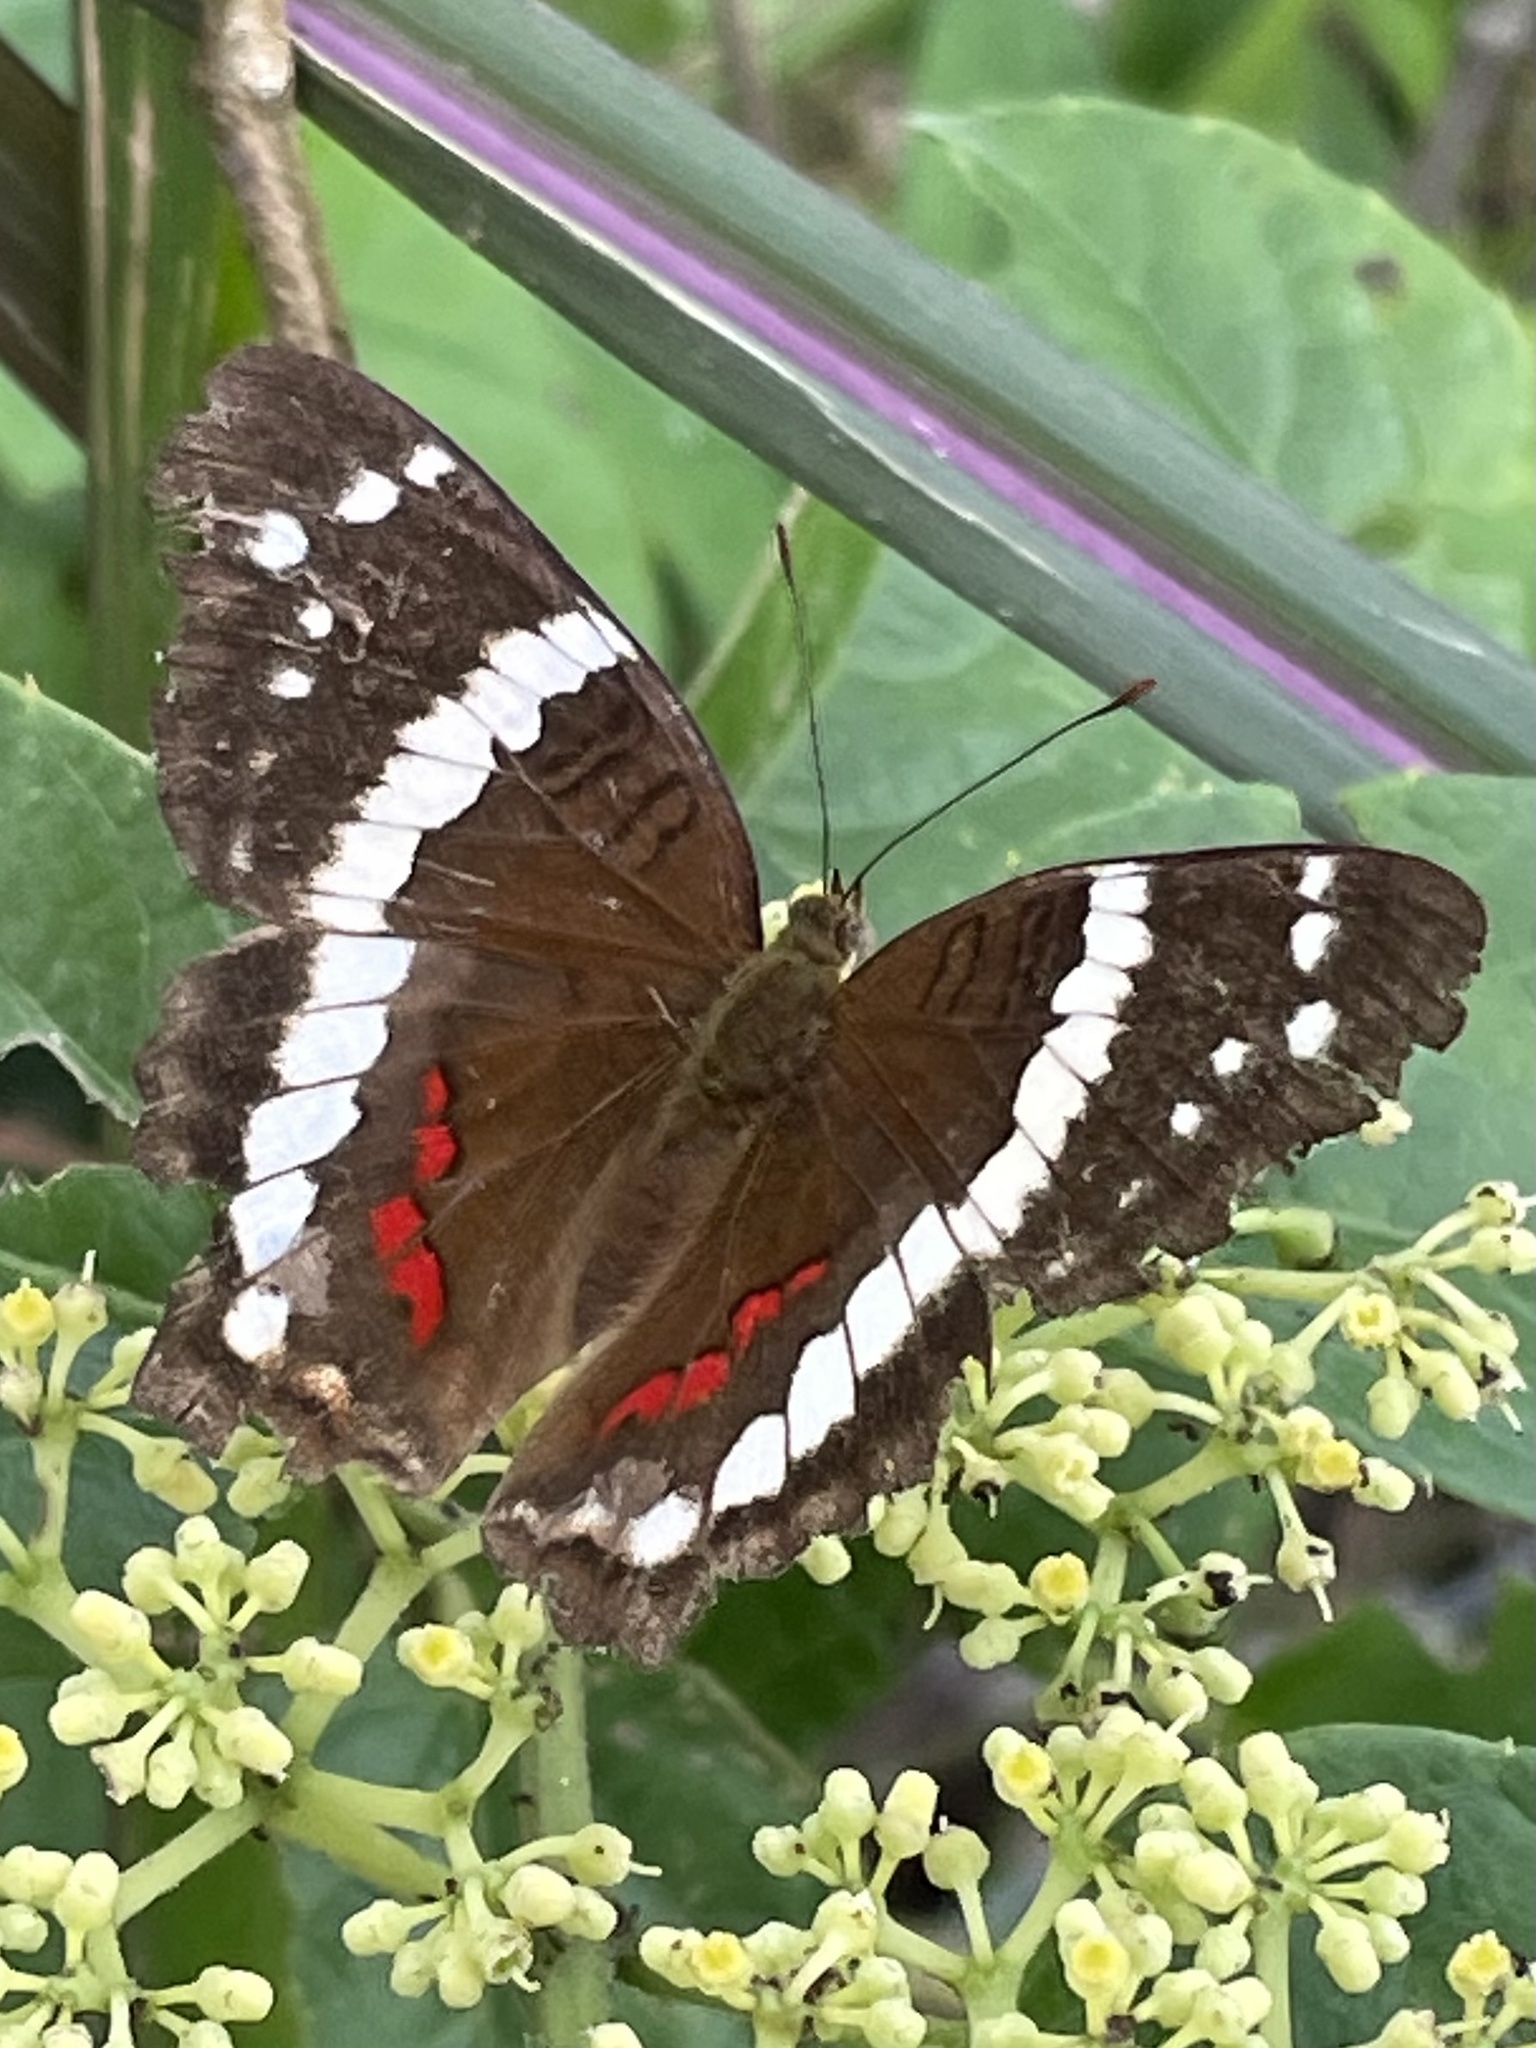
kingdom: Animalia
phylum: Arthropoda
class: Insecta
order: Lepidoptera
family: Nymphalidae
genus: Anartia
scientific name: Anartia fatima
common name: Banded peacock
